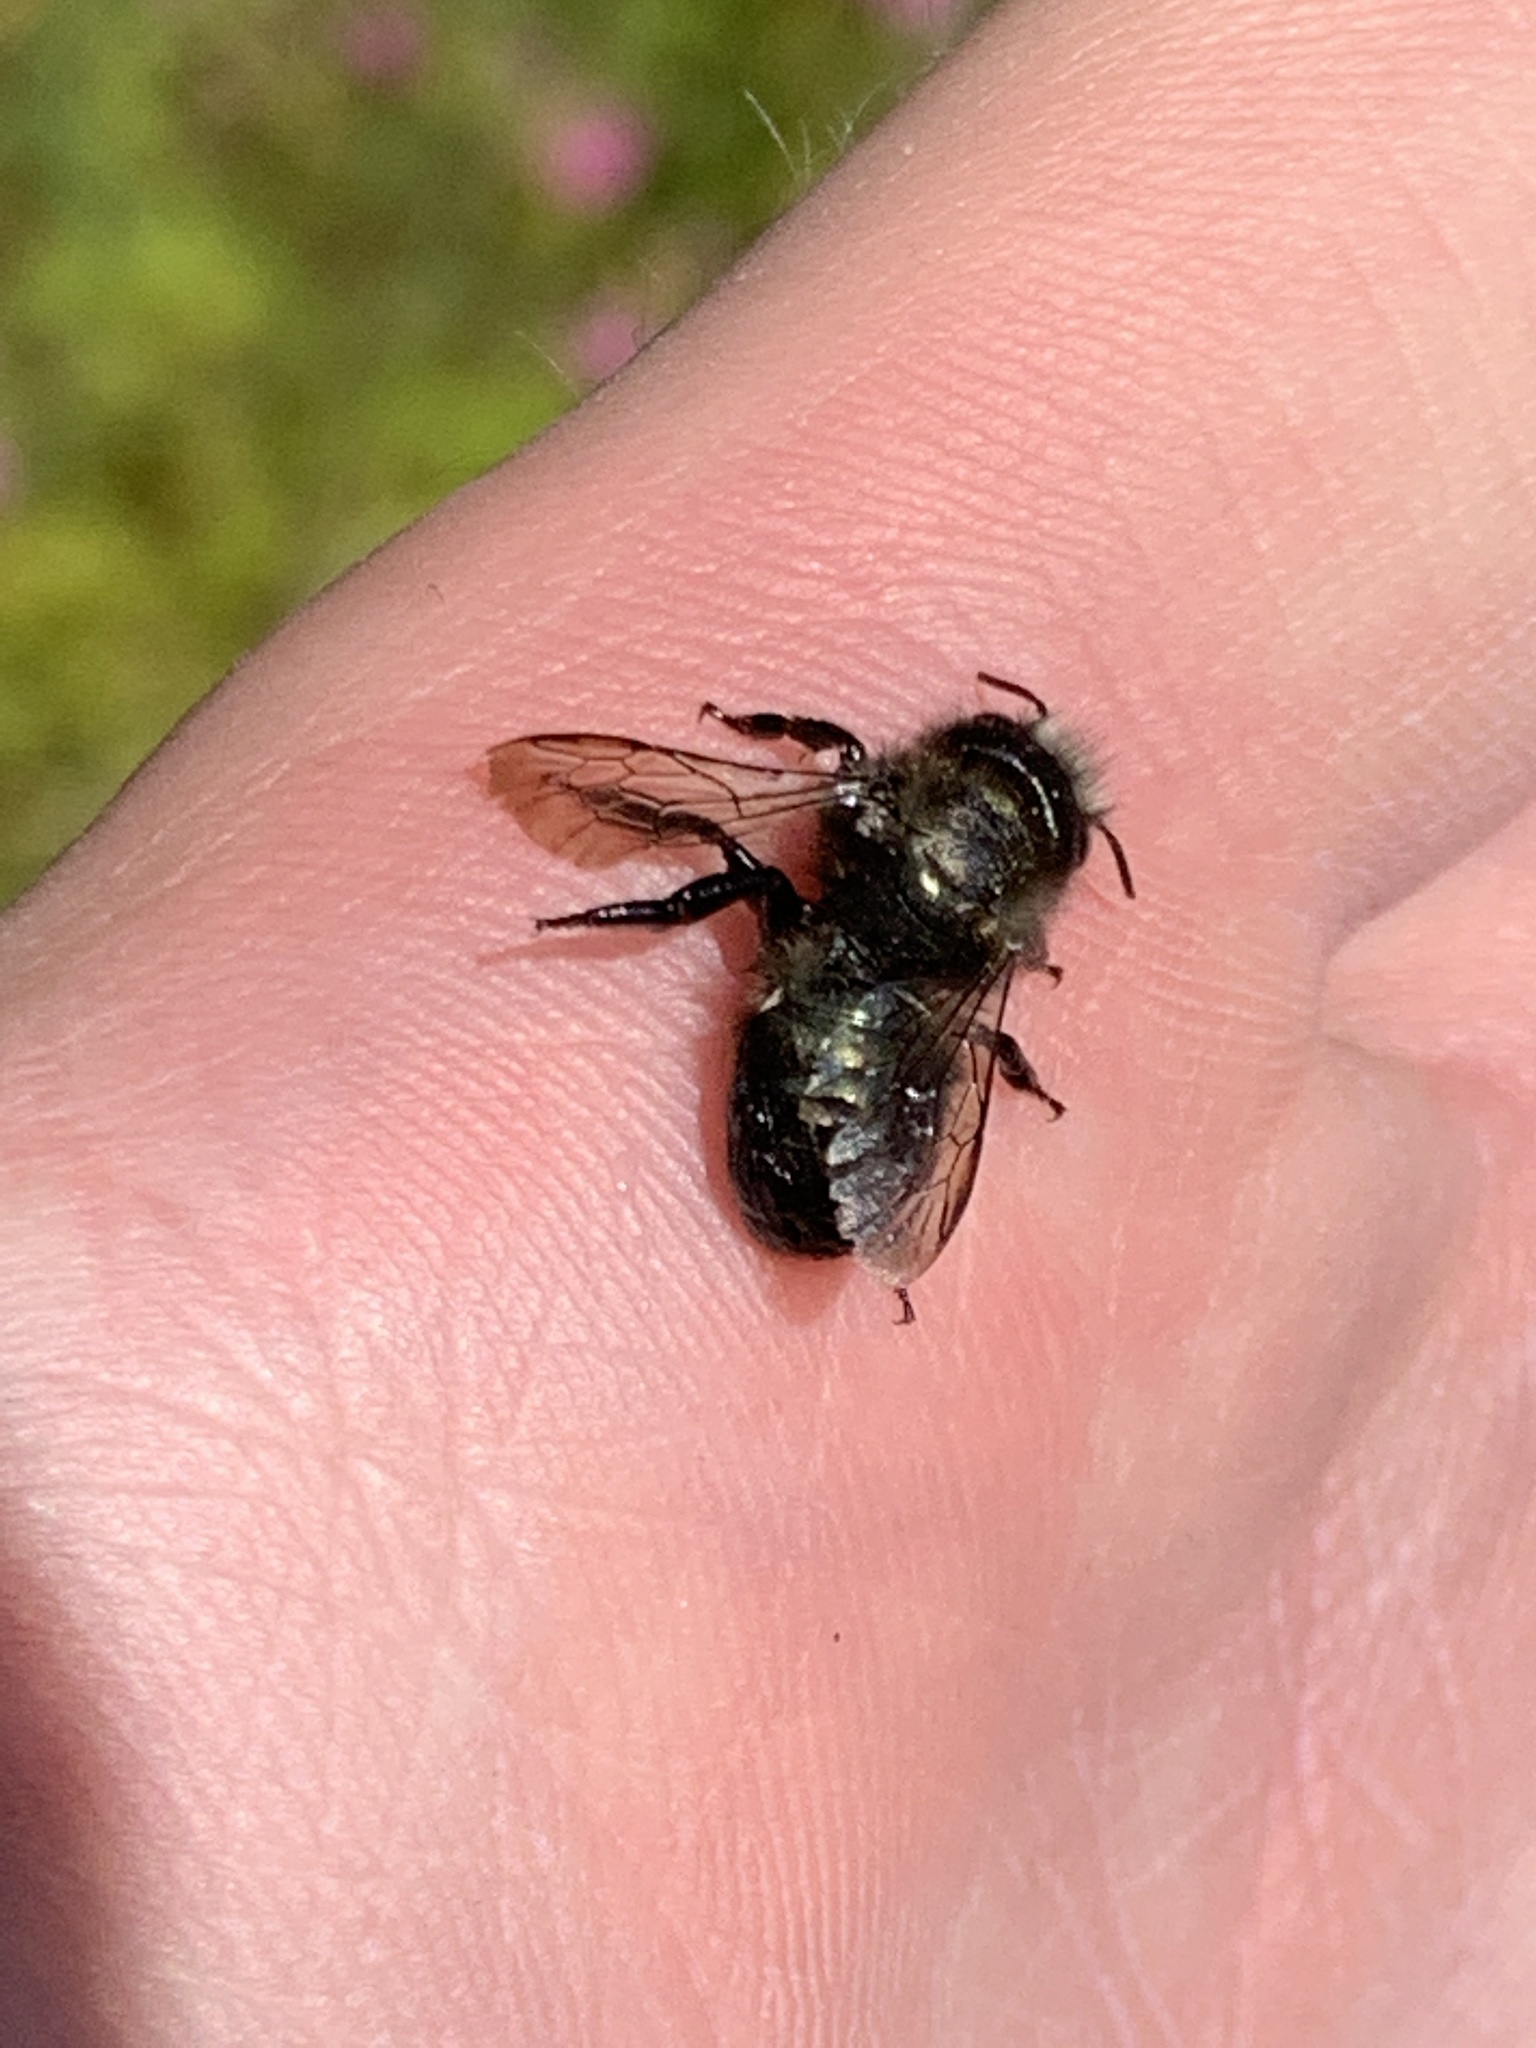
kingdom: Animalia
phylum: Arthropoda
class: Insecta
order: Hymenoptera
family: Megachilidae
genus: Osmia
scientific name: Osmia lignaria
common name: Blue orchard bee
